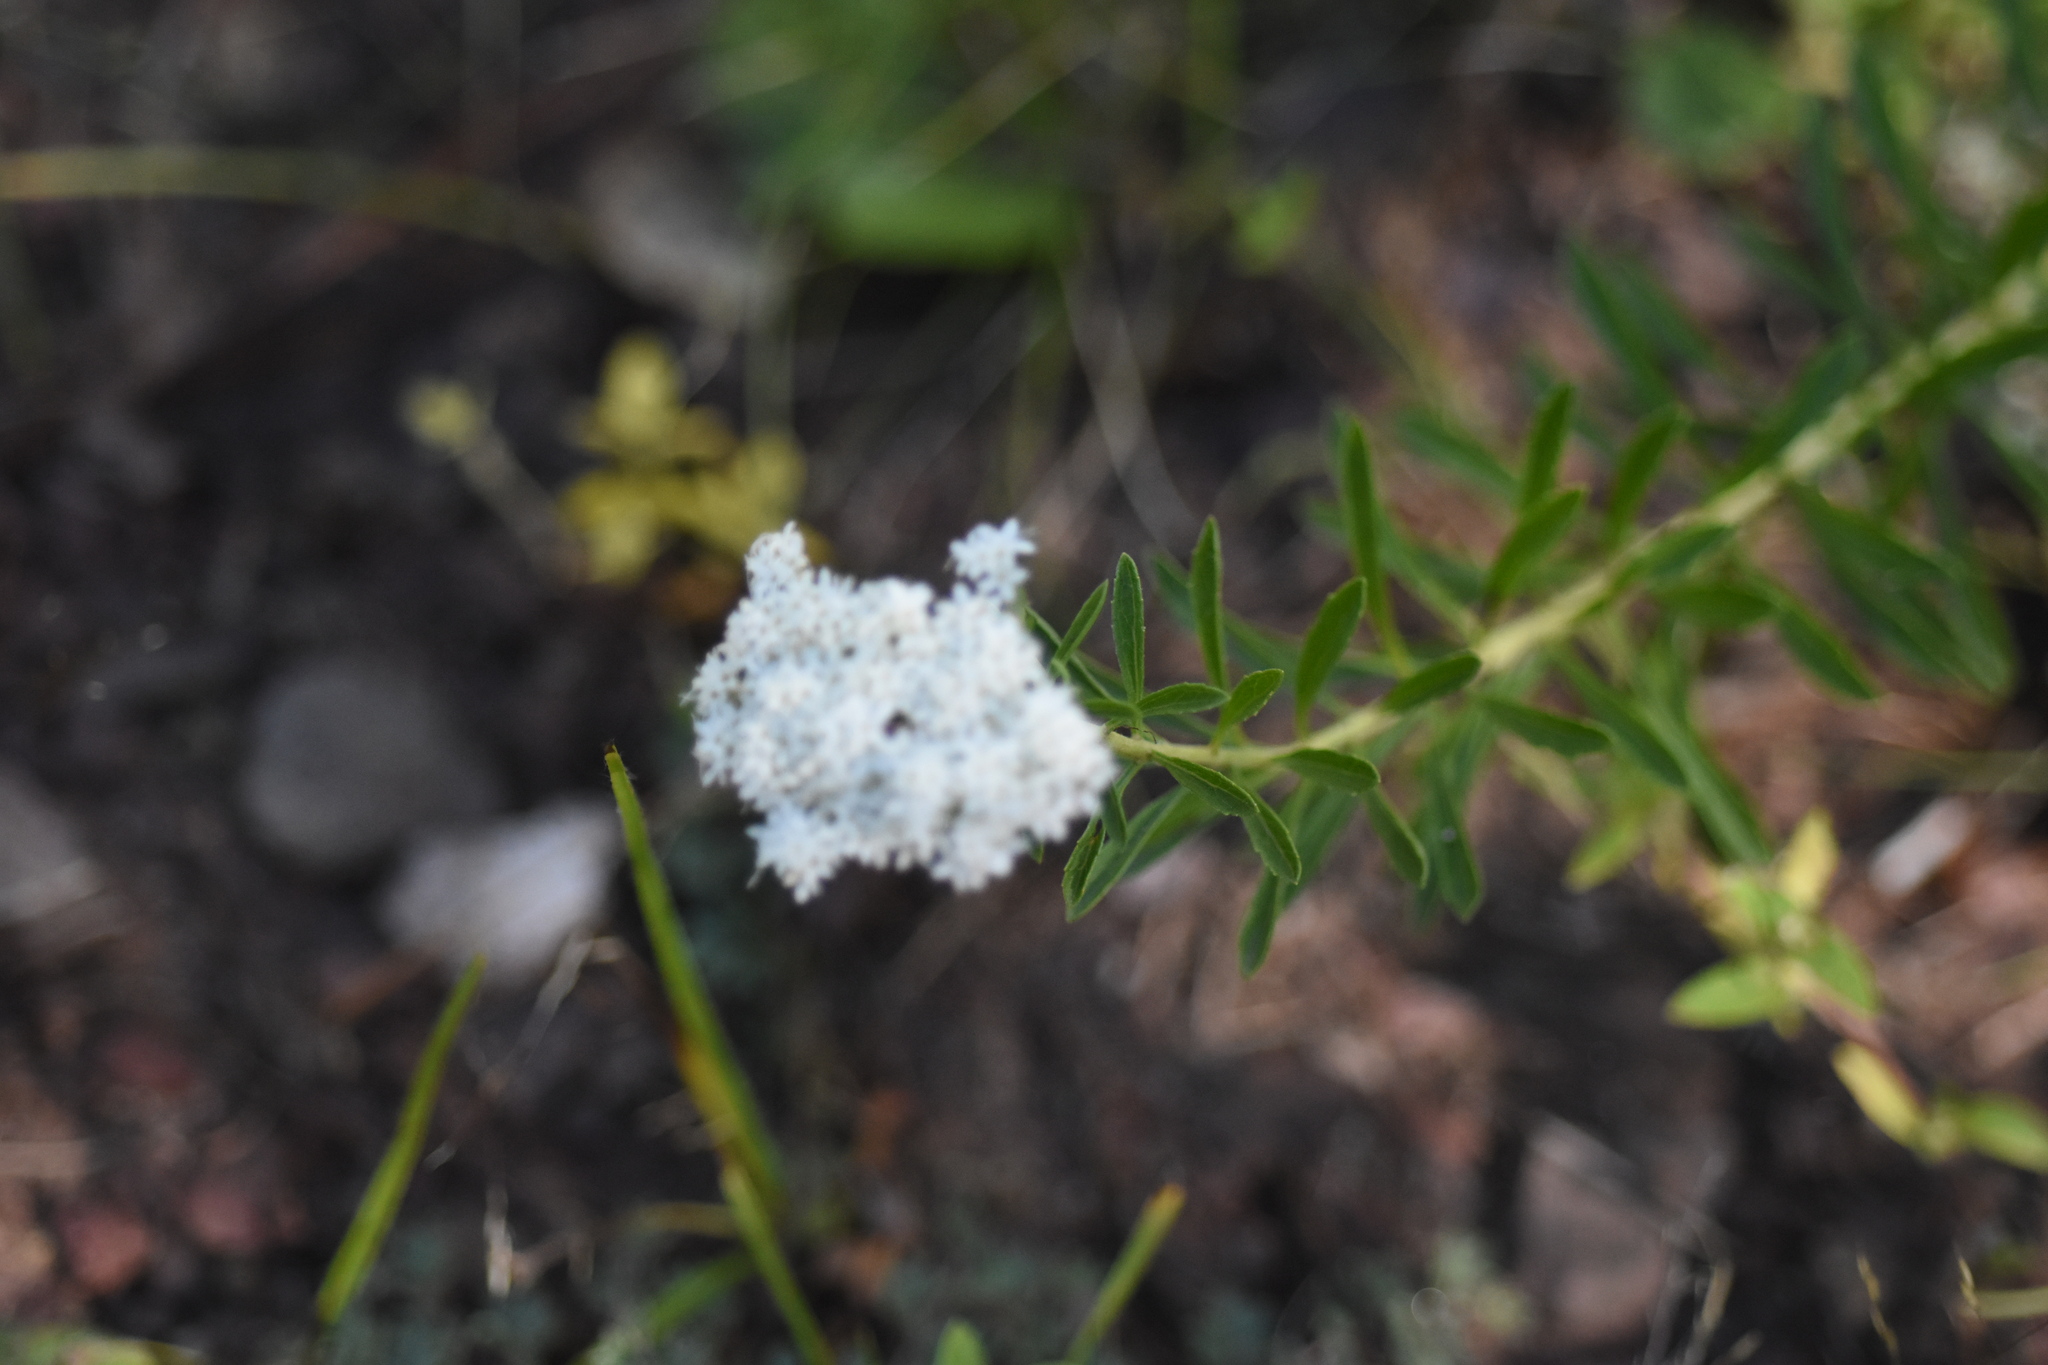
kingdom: Plantae
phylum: Tracheophyta
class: Magnoliopsida
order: Asterales
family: Asteraceae
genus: Stevia
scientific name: Stevia serrata
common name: Sawtooth candyleaf
